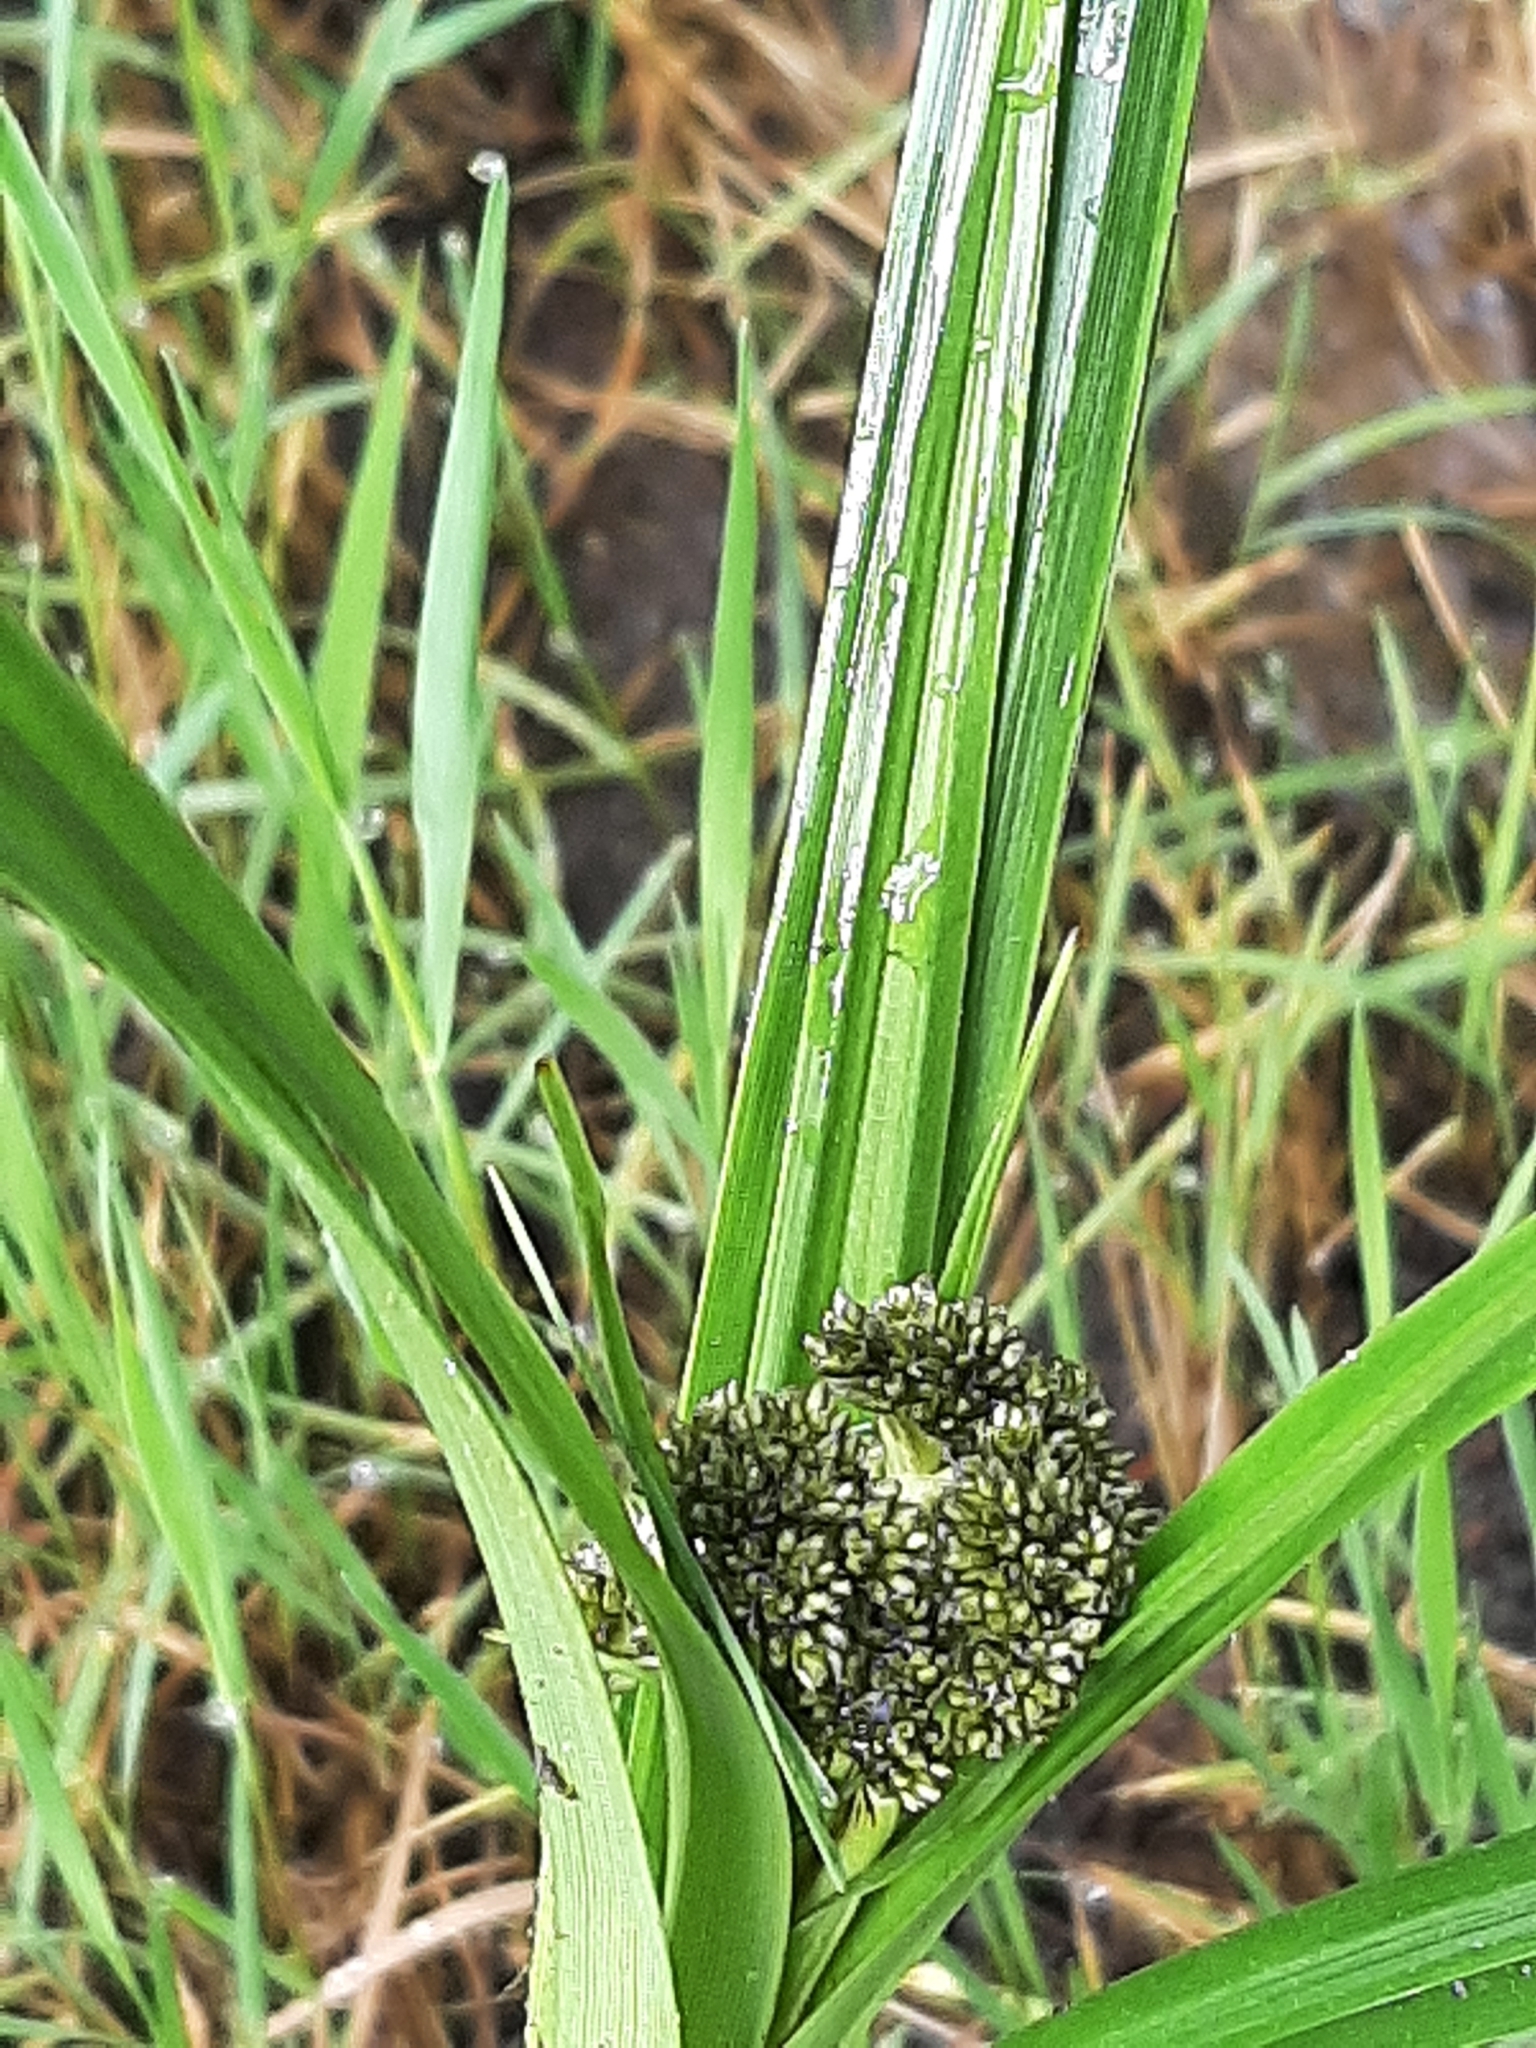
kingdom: Plantae
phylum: Tracheophyta
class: Liliopsida
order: Poales
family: Cyperaceae
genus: Scirpus
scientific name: Scirpus microcarpus
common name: Panicled bulrush
